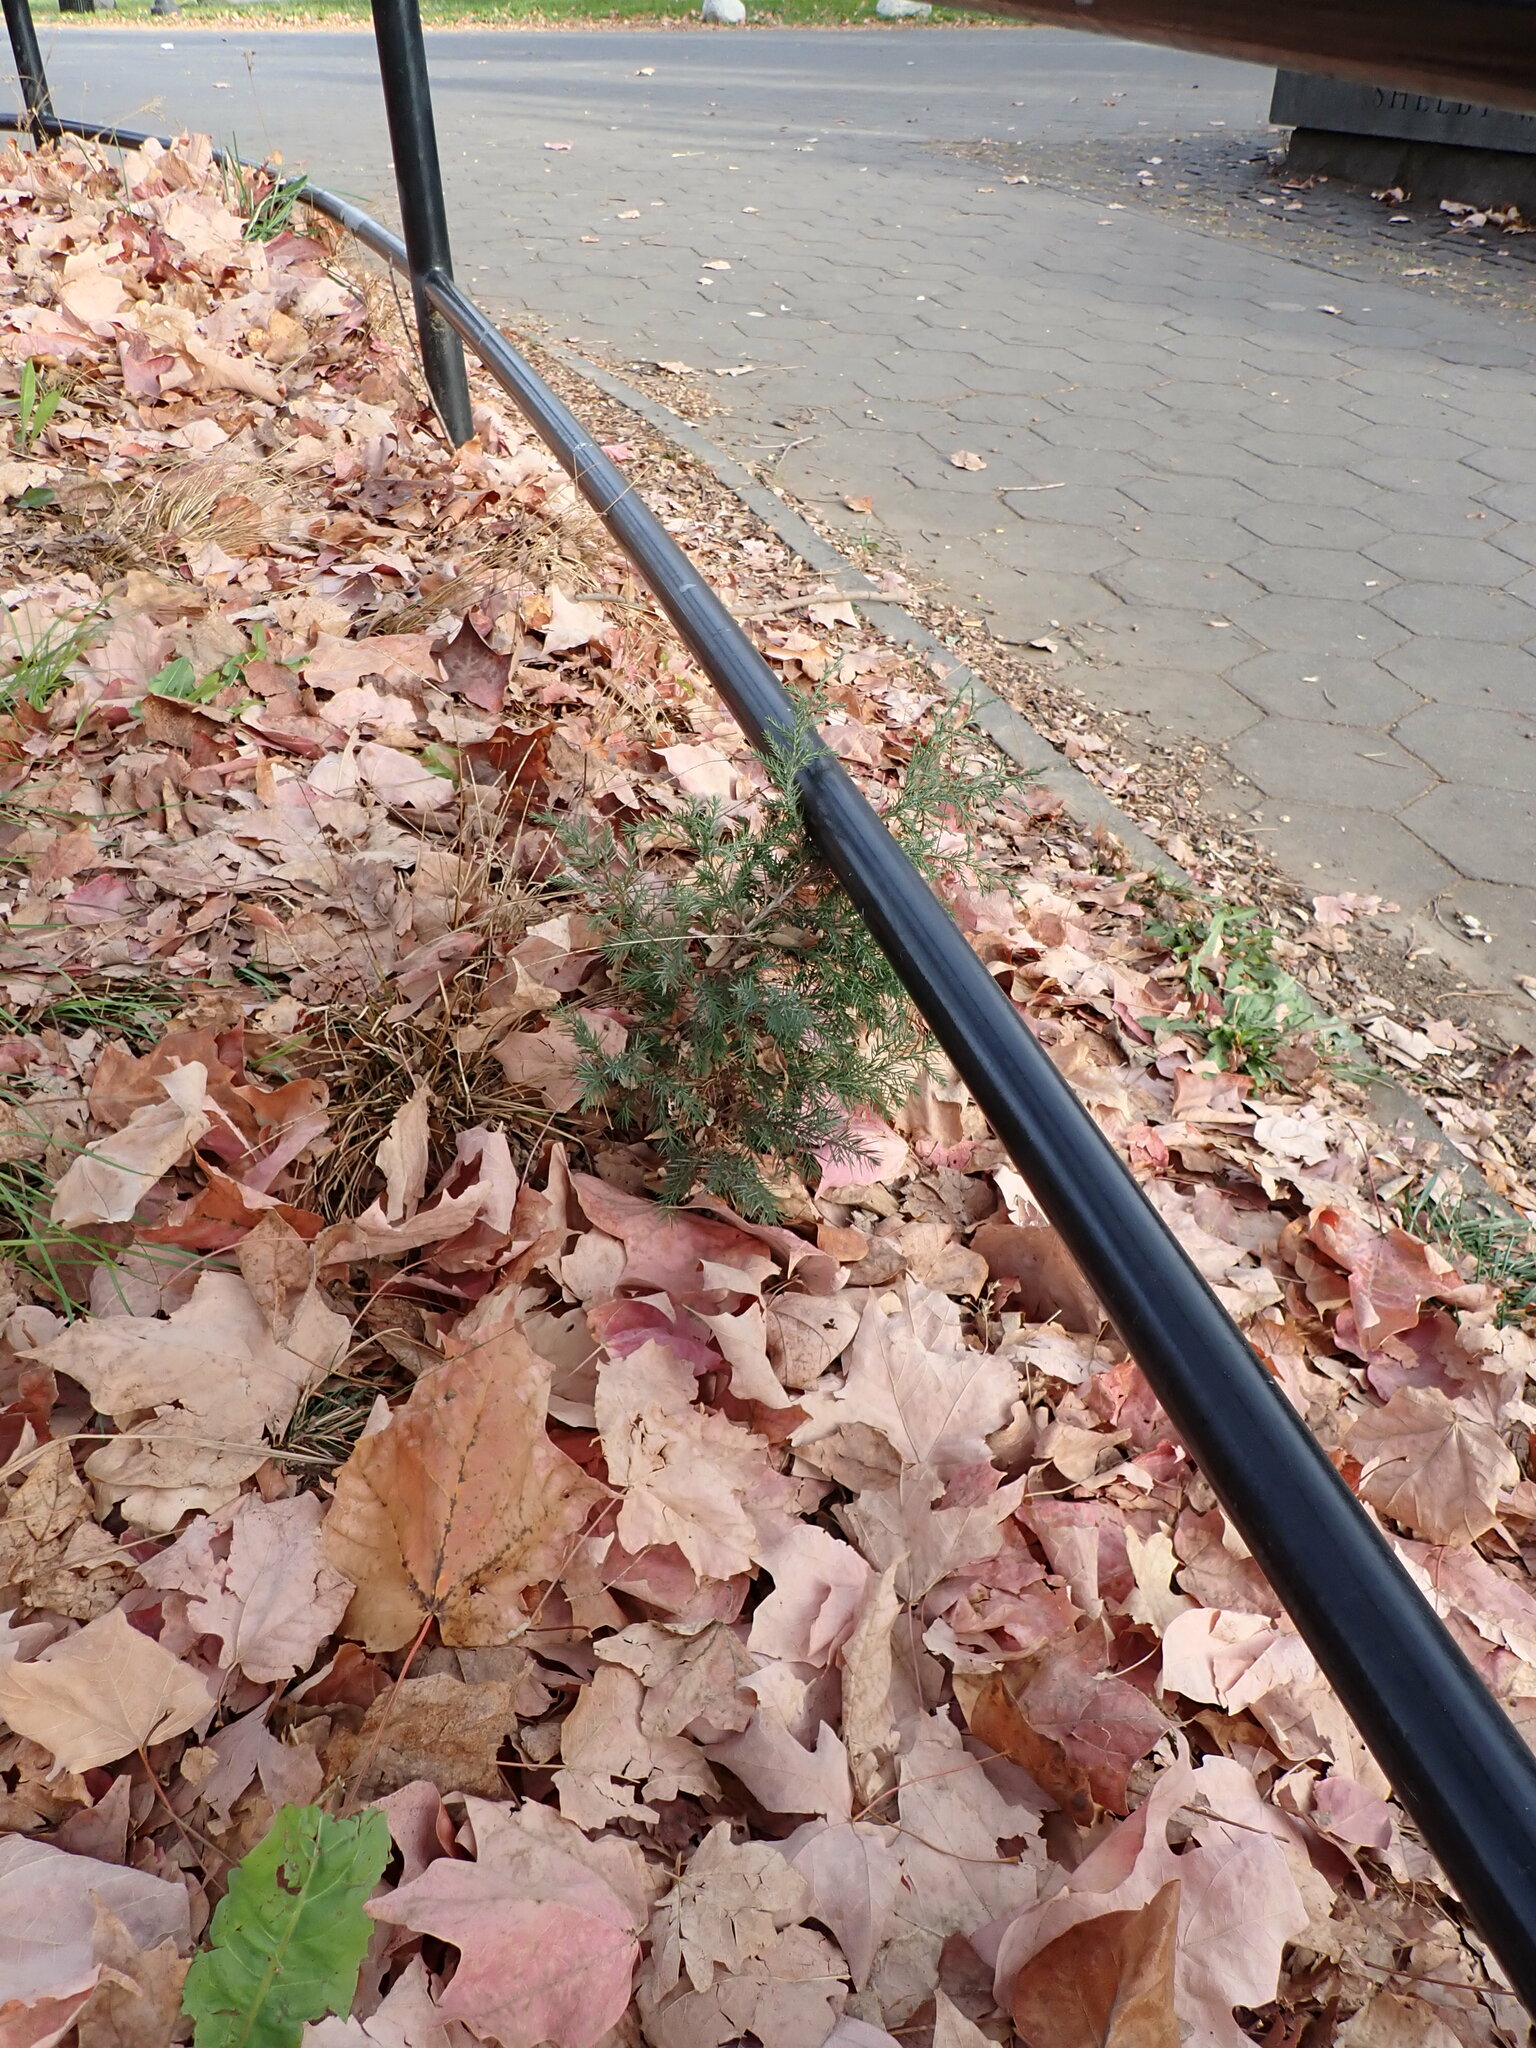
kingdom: Plantae
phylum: Tracheophyta
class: Pinopsida
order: Pinales
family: Cupressaceae
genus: Juniperus
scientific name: Juniperus virginiana
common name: Red juniper
